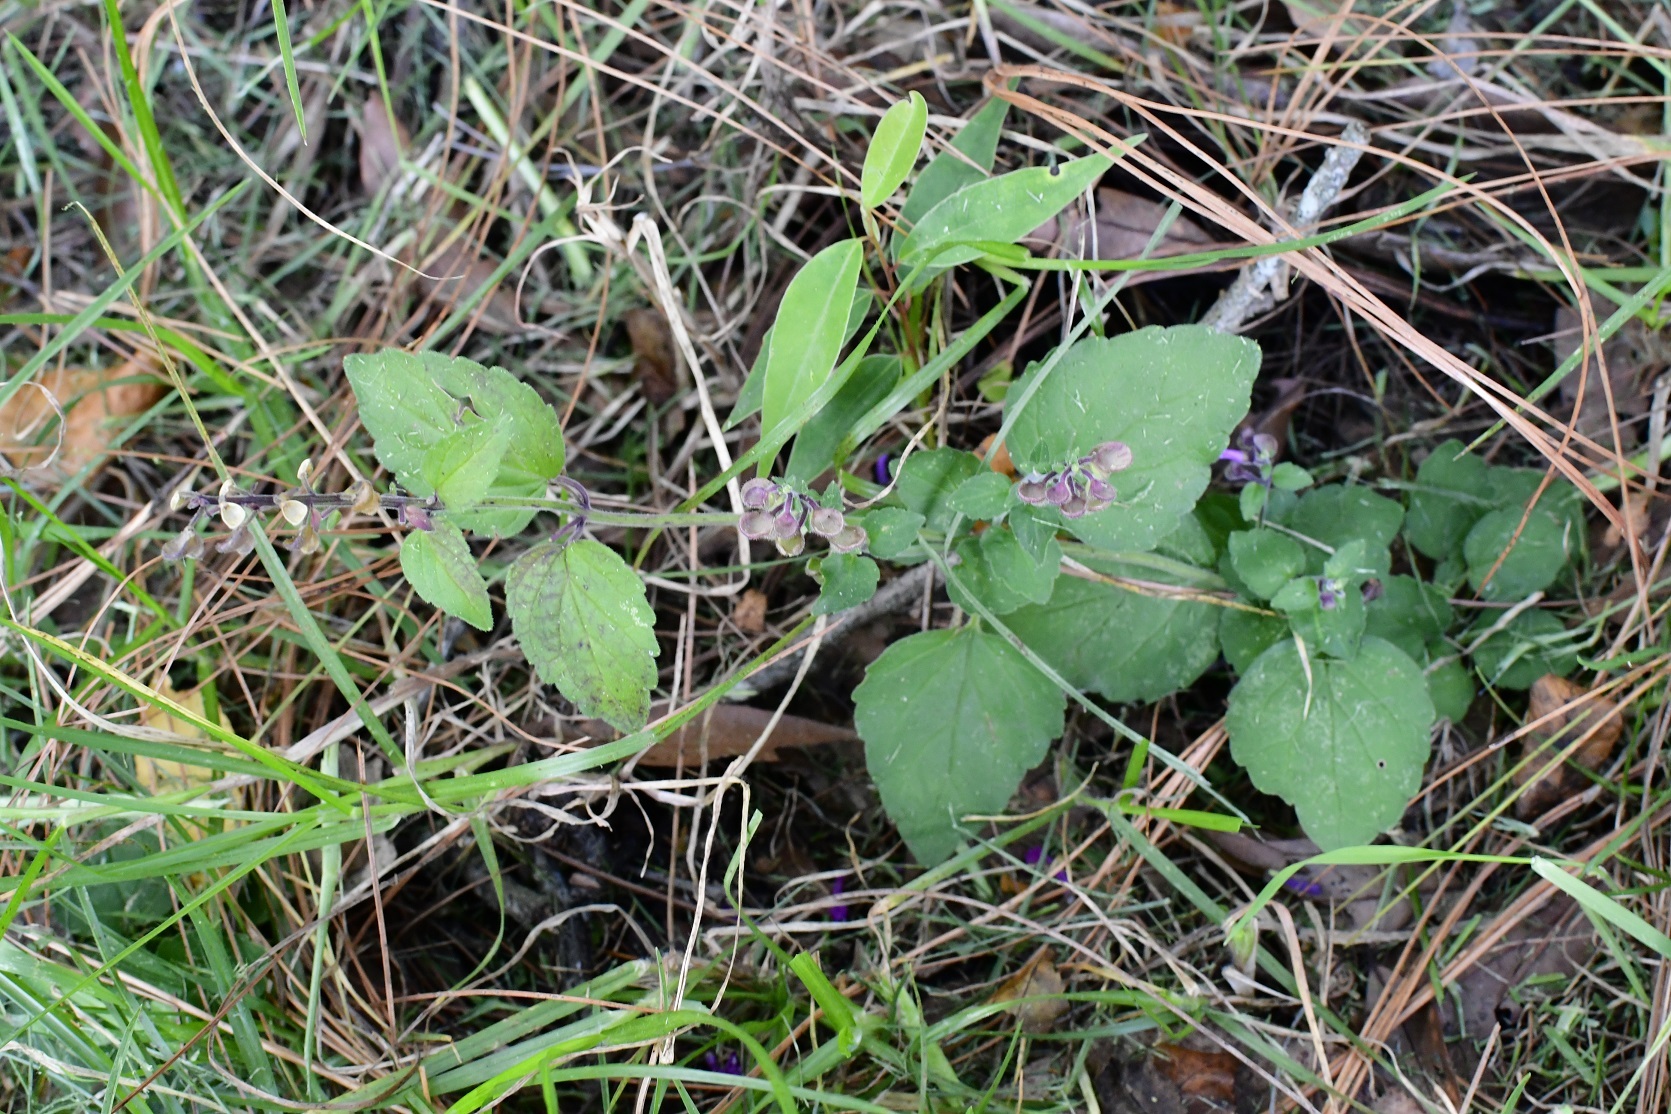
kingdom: Plantae
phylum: Tracheophyta
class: Magnoliopsida
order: Lamiales
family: Lamiaceae
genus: Scutellaria
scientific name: Scutellaria guatemalensis
